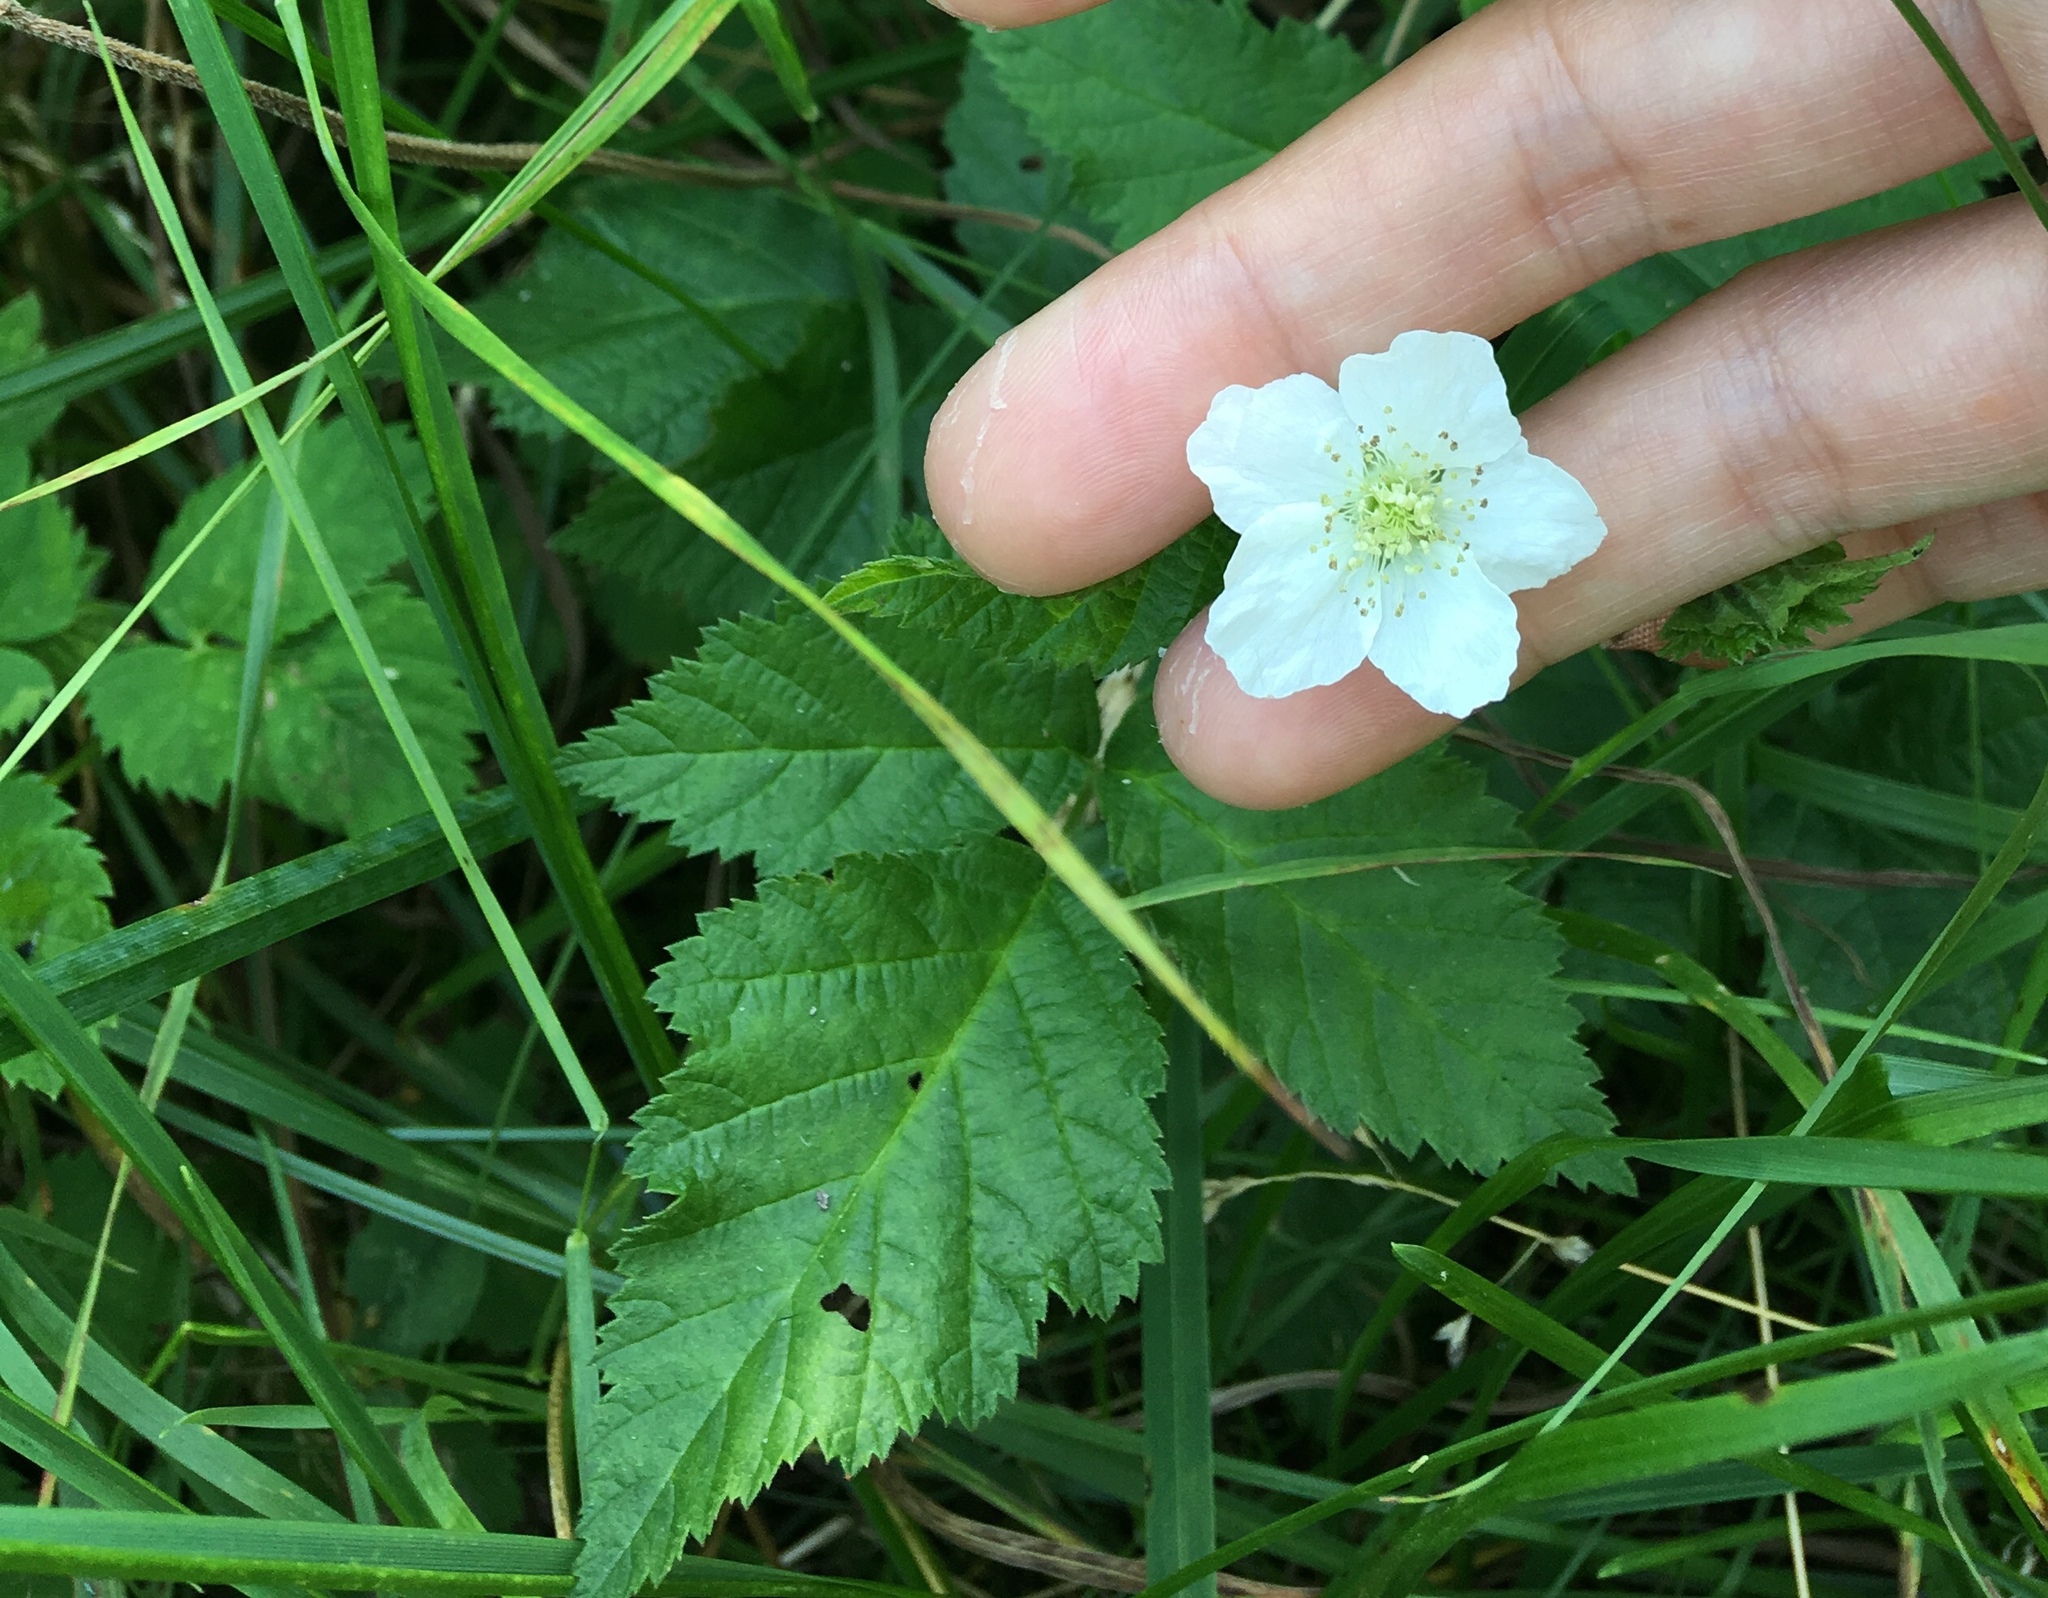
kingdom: Plantae
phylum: Tracheophyta
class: Magnoliopsida
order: Rosales
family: Rosaceae
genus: Rubus
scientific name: Rubus caesius
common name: Dewberry
